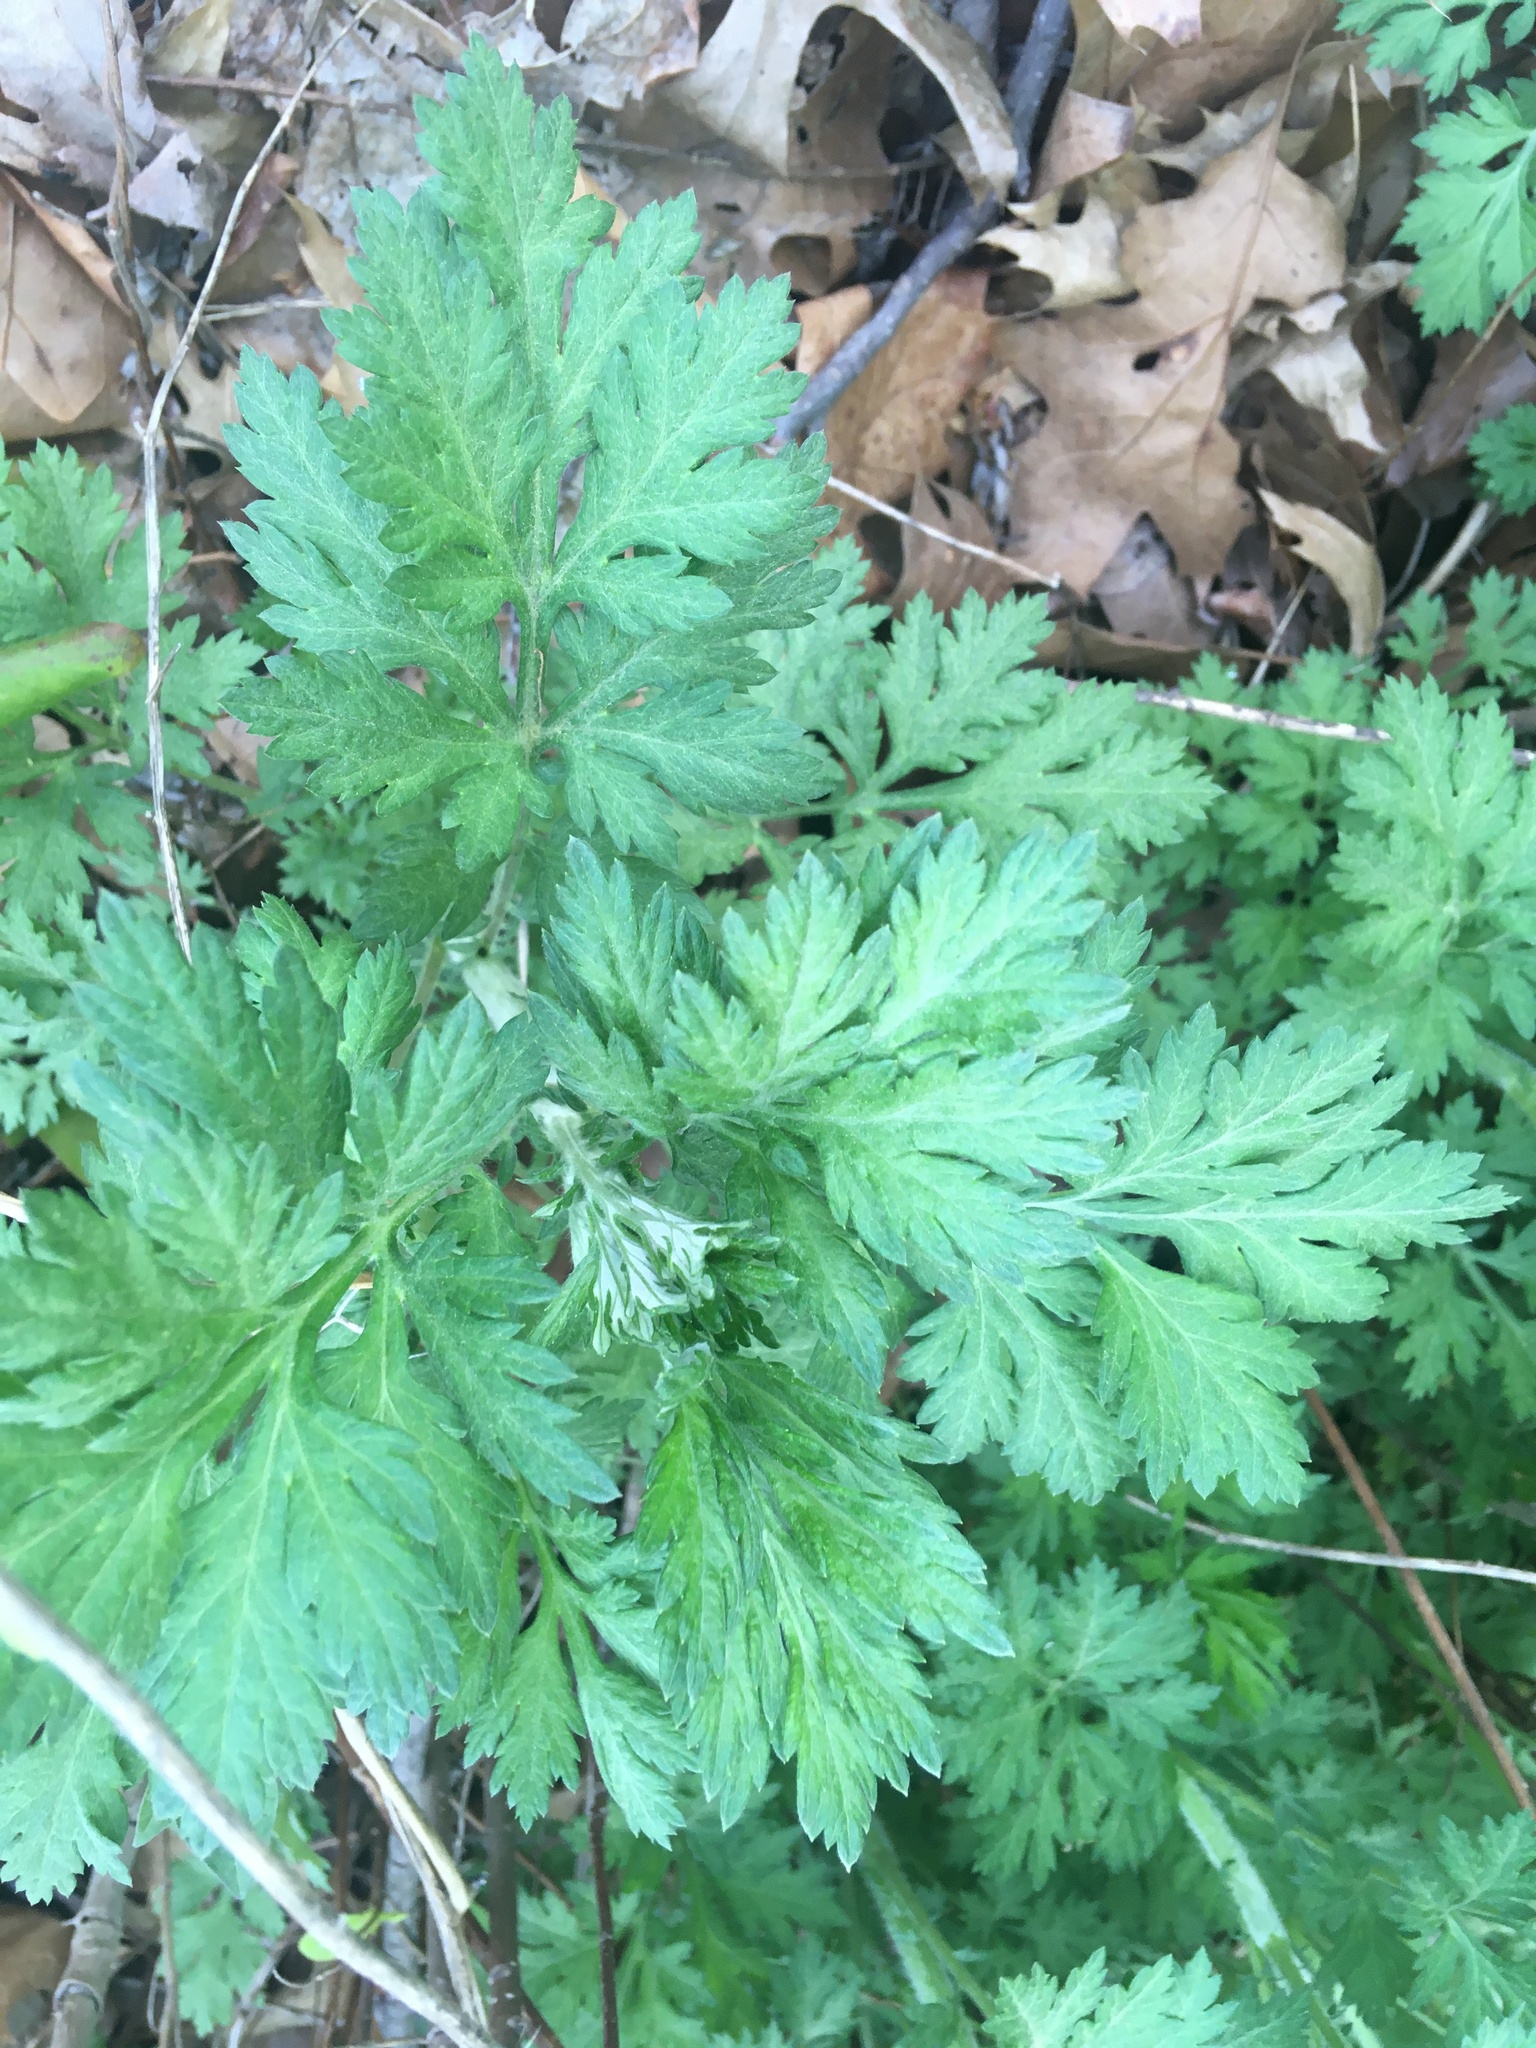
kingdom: Plantae
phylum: Tracheophyta
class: Magnoliopsida
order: Asterales
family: Asteraceae
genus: Artemisia
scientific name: Artemisia vulgaris
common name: Mugwort
